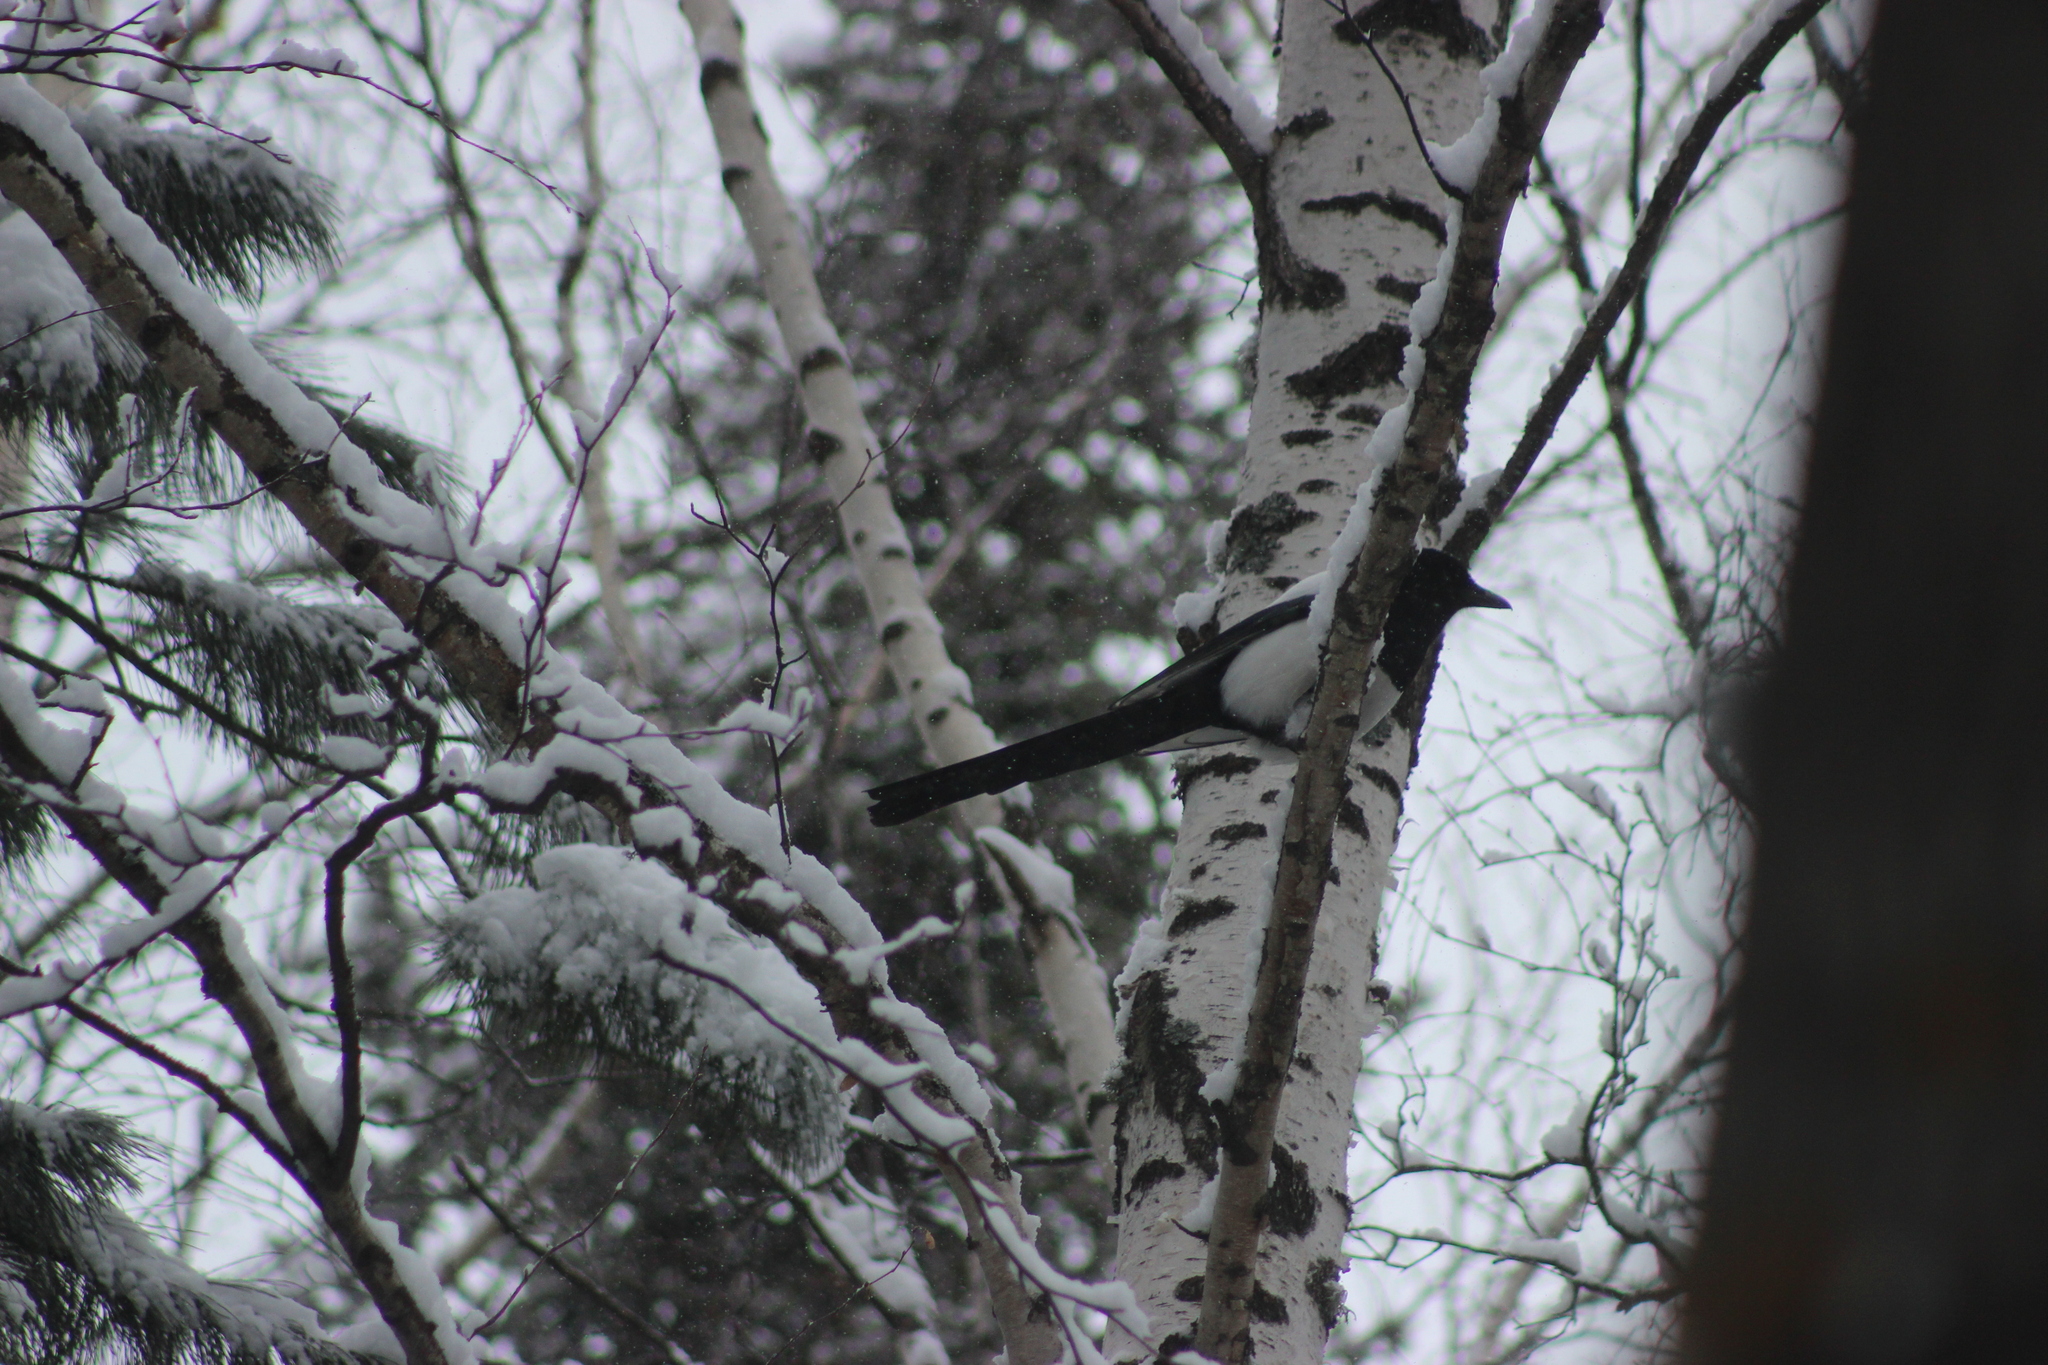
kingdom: Animalia
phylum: Chordata
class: Aves
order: Passeriformes
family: Corvidae
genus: Pica
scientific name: Pica pica
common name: Eurasian magpie
